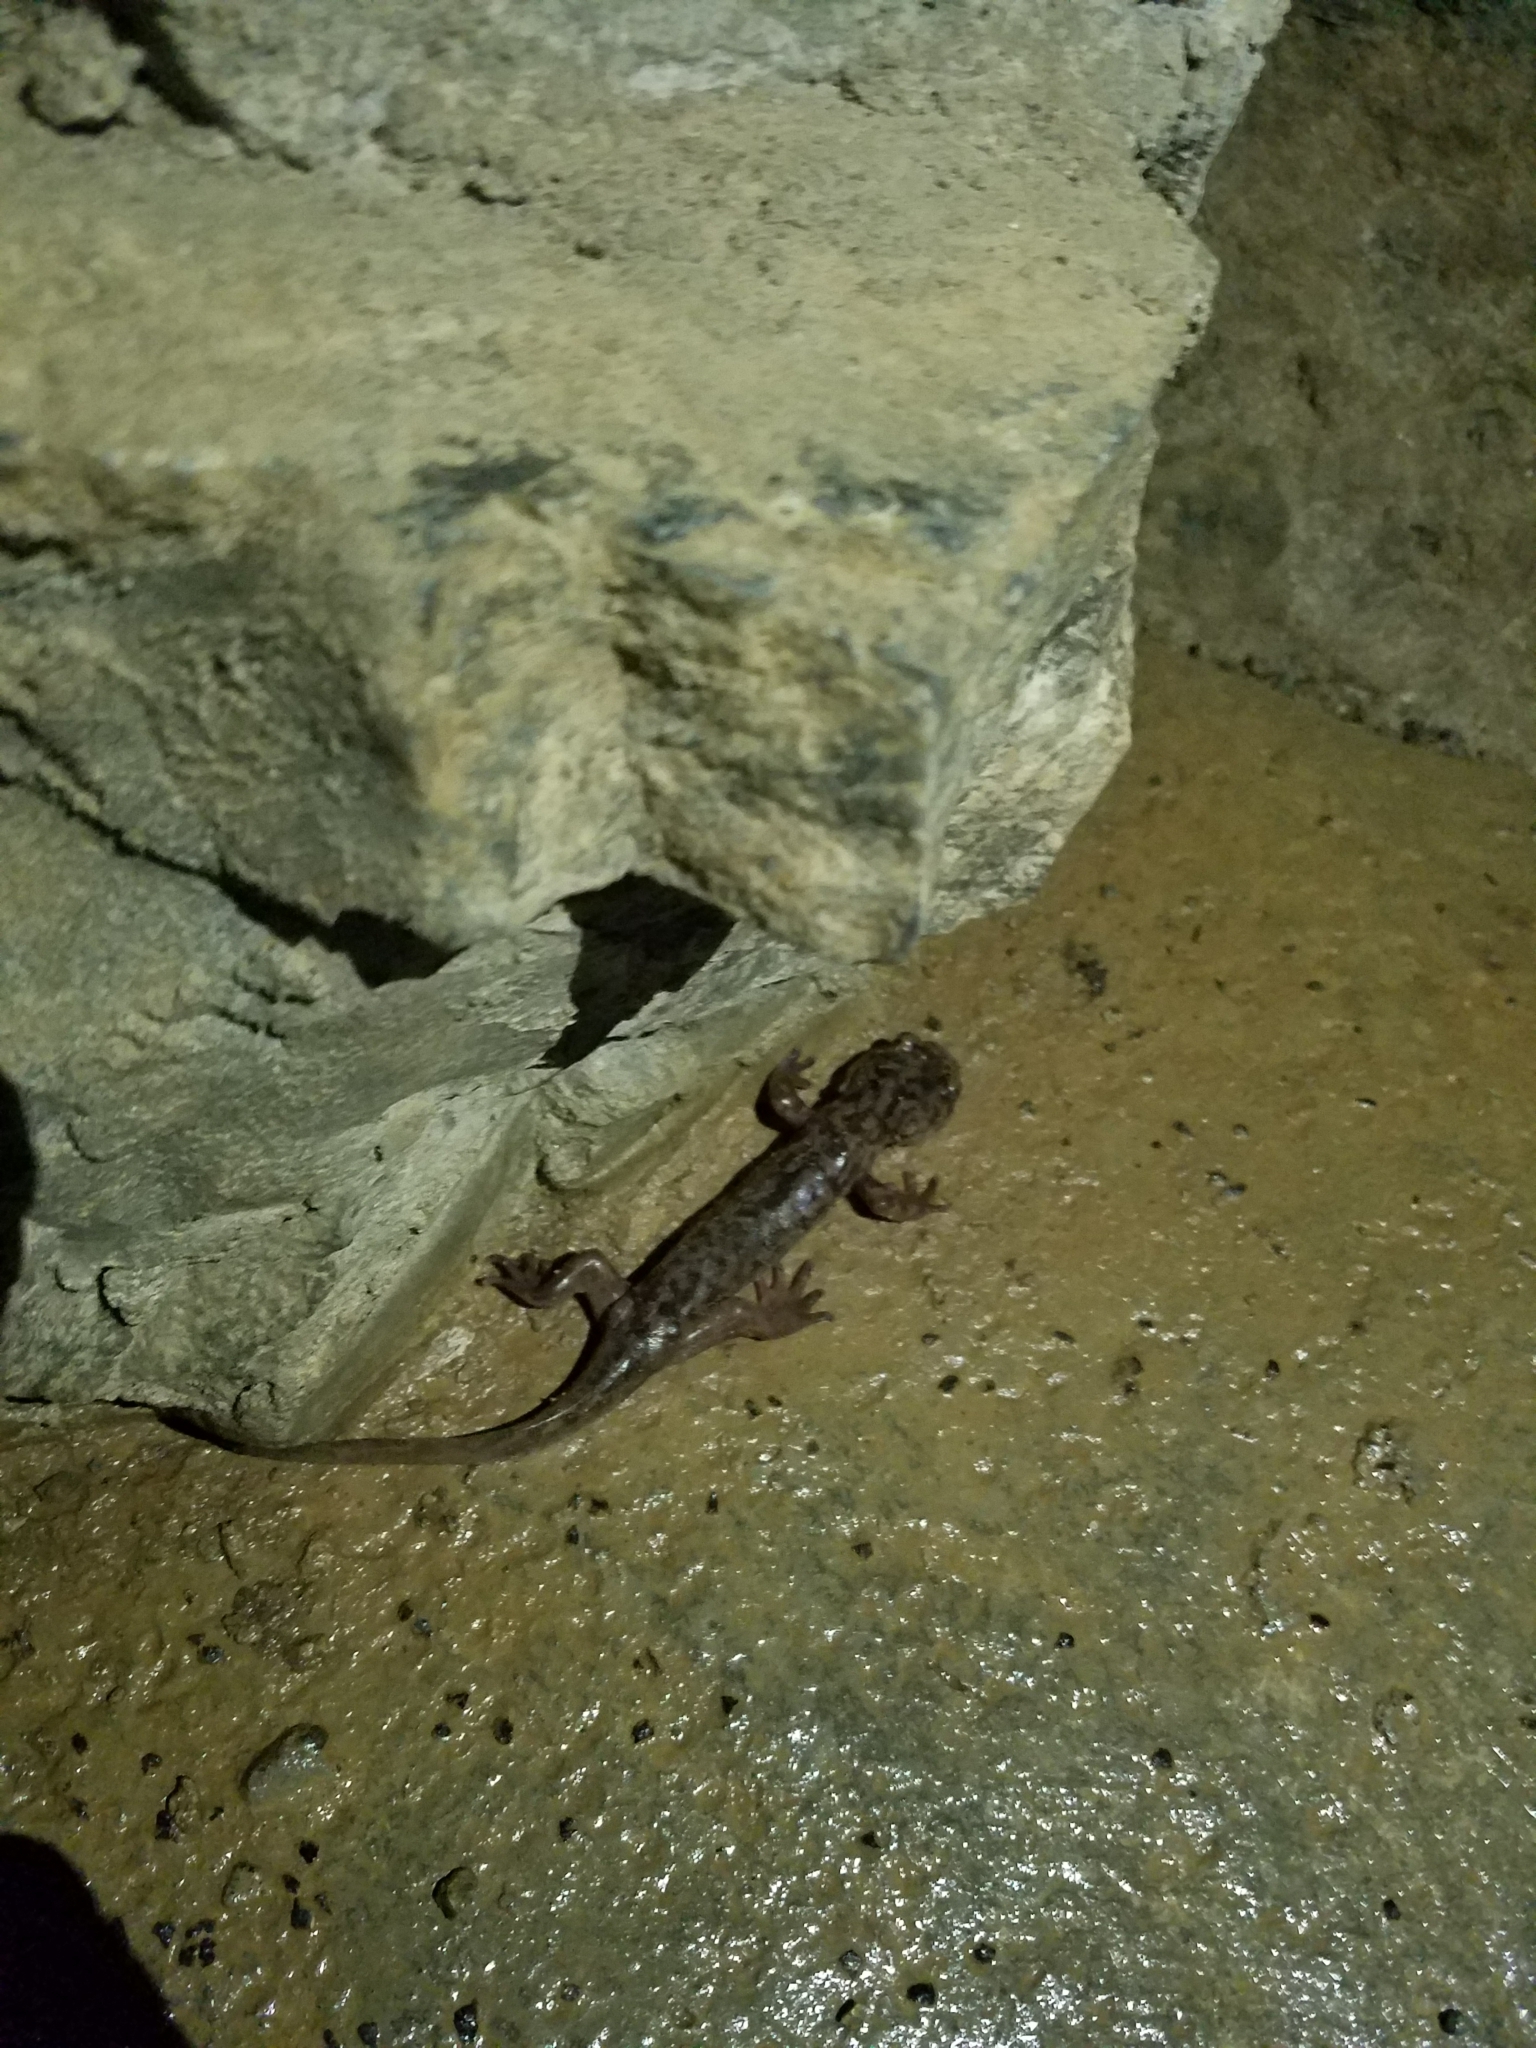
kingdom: Animalia
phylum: Chordata
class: Amphibia
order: Caudata
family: Ambystomatidae
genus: Dicamptodon
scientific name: Dicamptodon tenebrosus
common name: Coastal giant salamander
